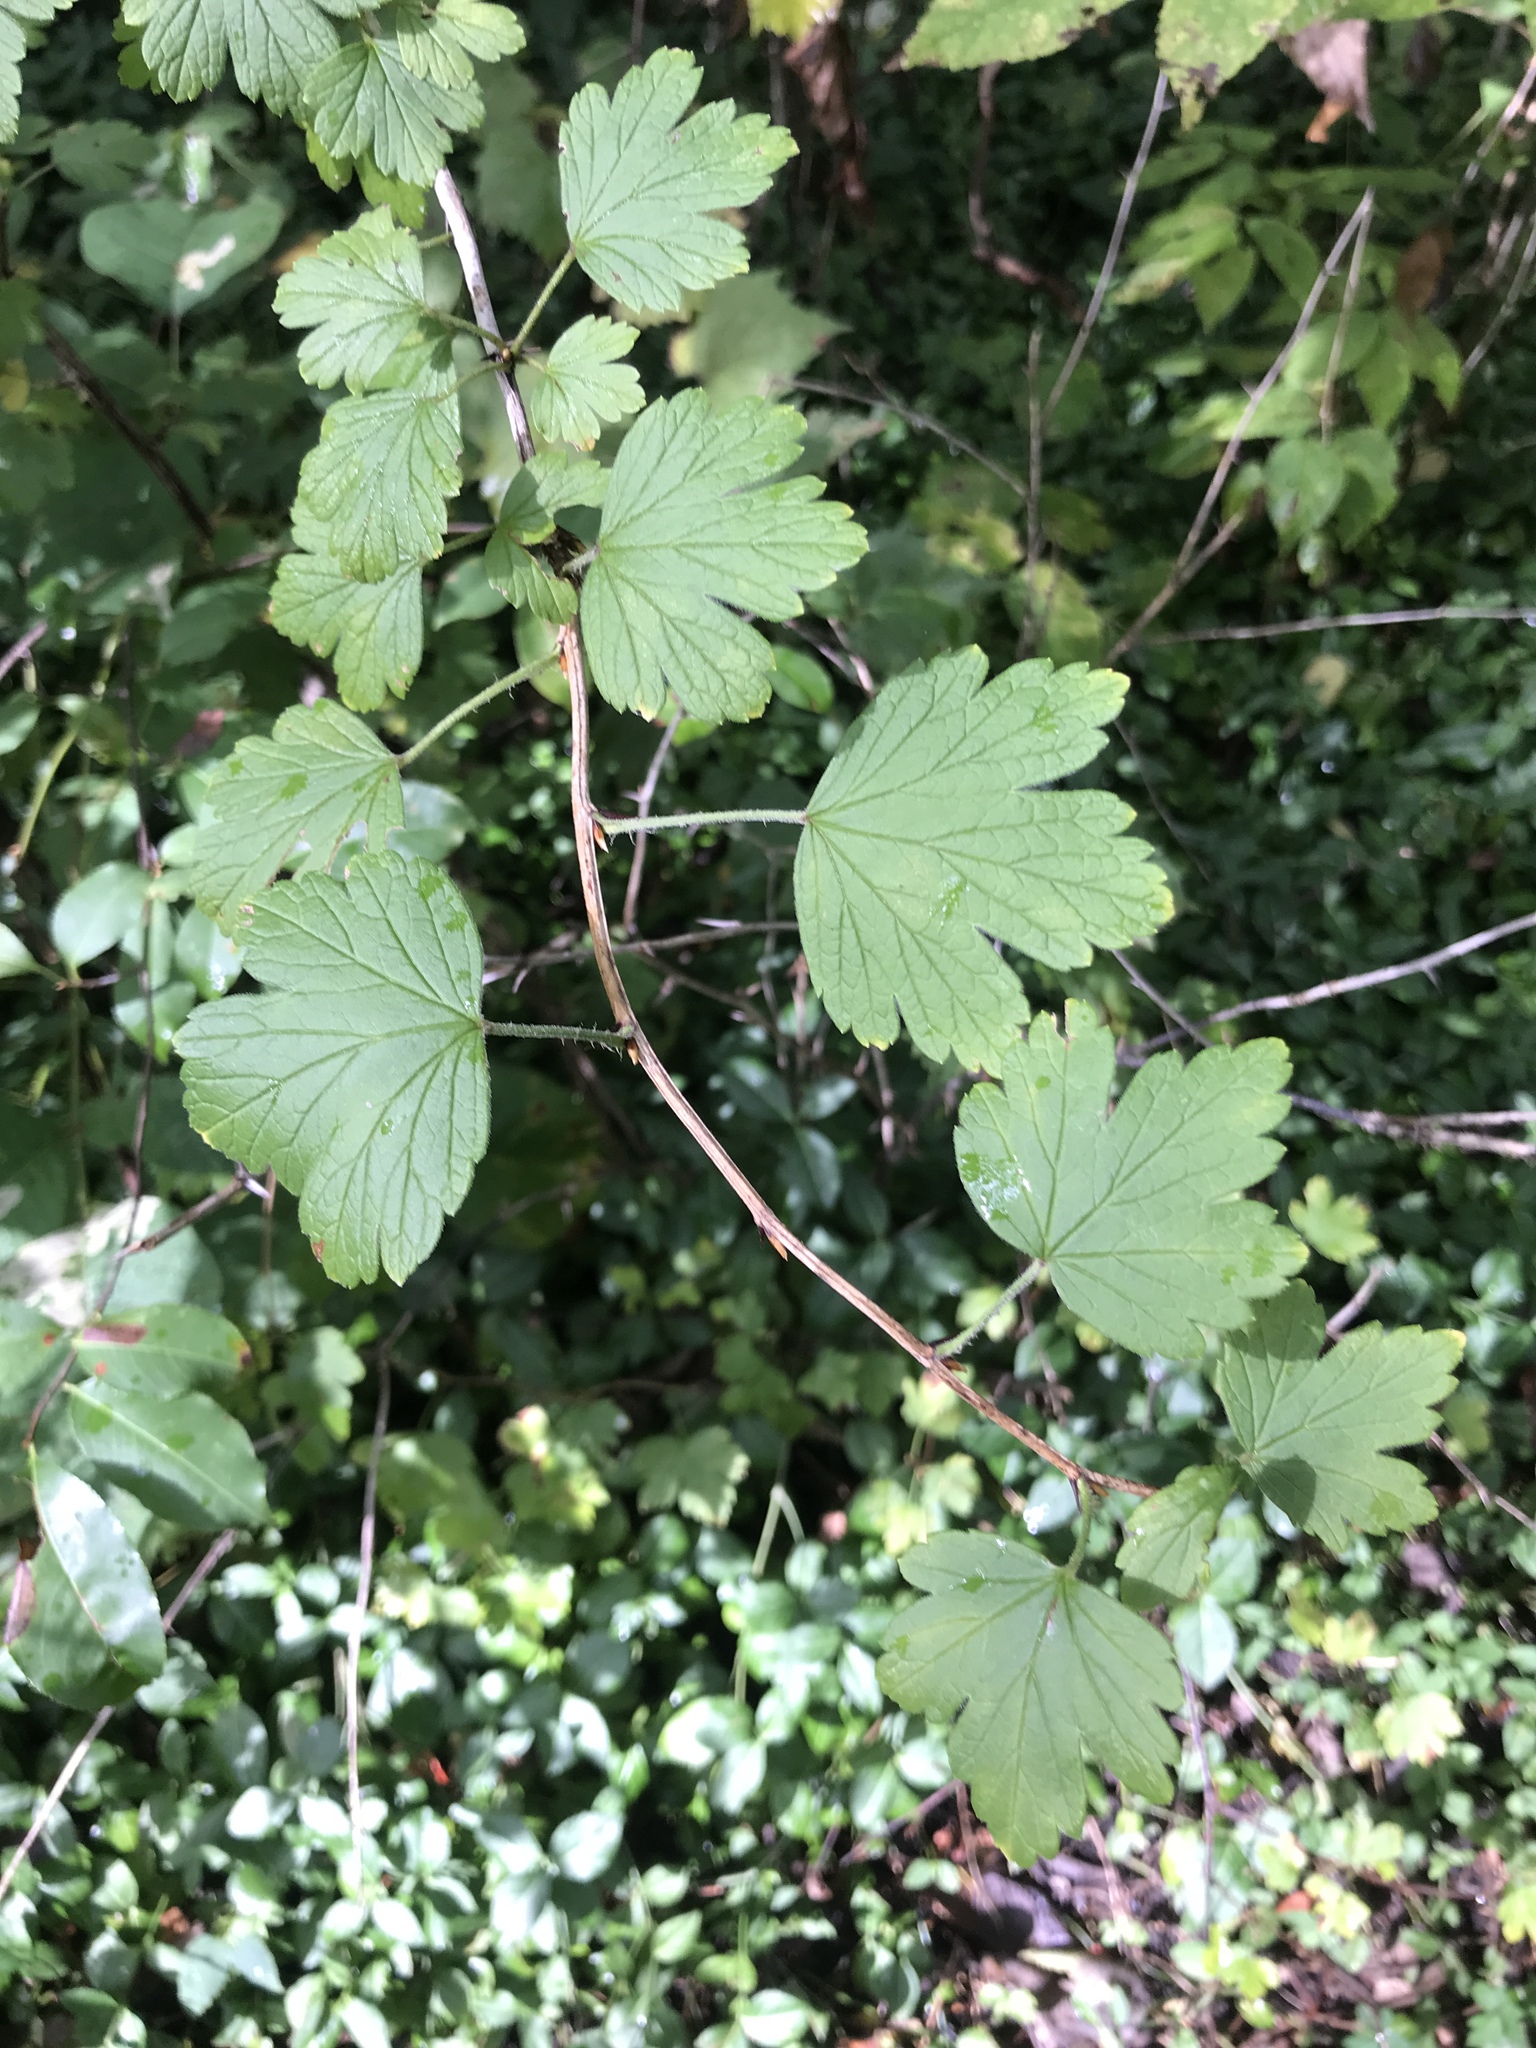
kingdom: Plantae
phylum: Tracheophyta
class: Magnoliopsida
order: Saxifragales
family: Grossulariaceae
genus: Ribes
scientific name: Ribes missouriense
